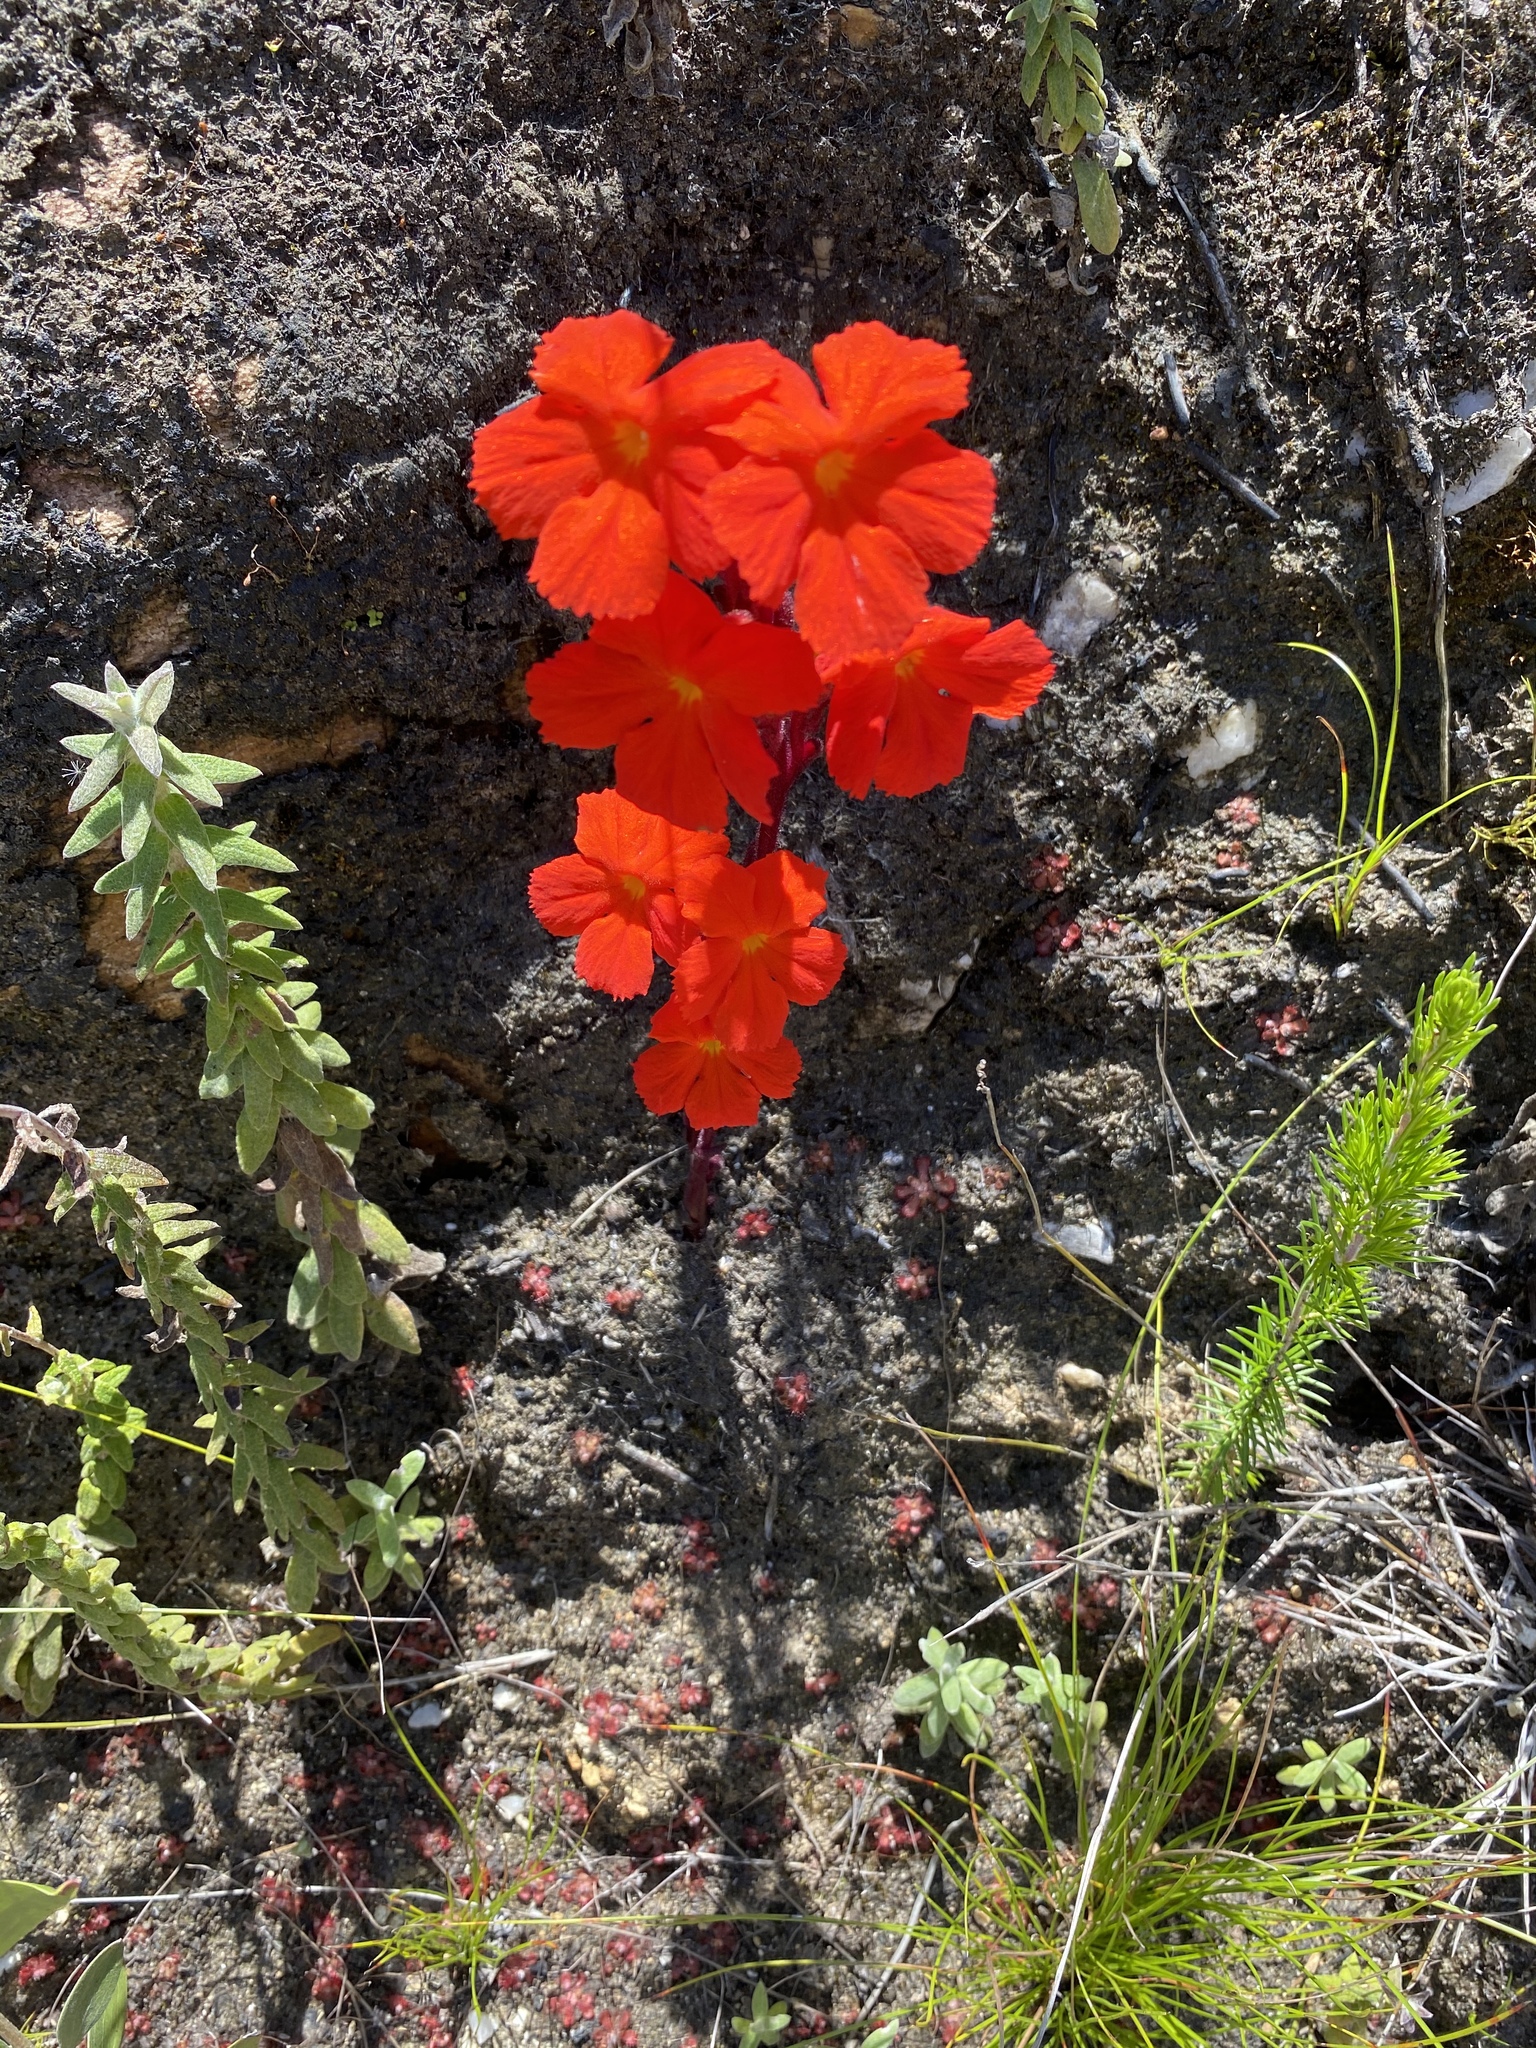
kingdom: Plantae
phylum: Tracheophyta
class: Magnoliopsida
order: Lamiales
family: Orobanchaceae
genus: Harveya
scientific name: Harveya stenosiphon
